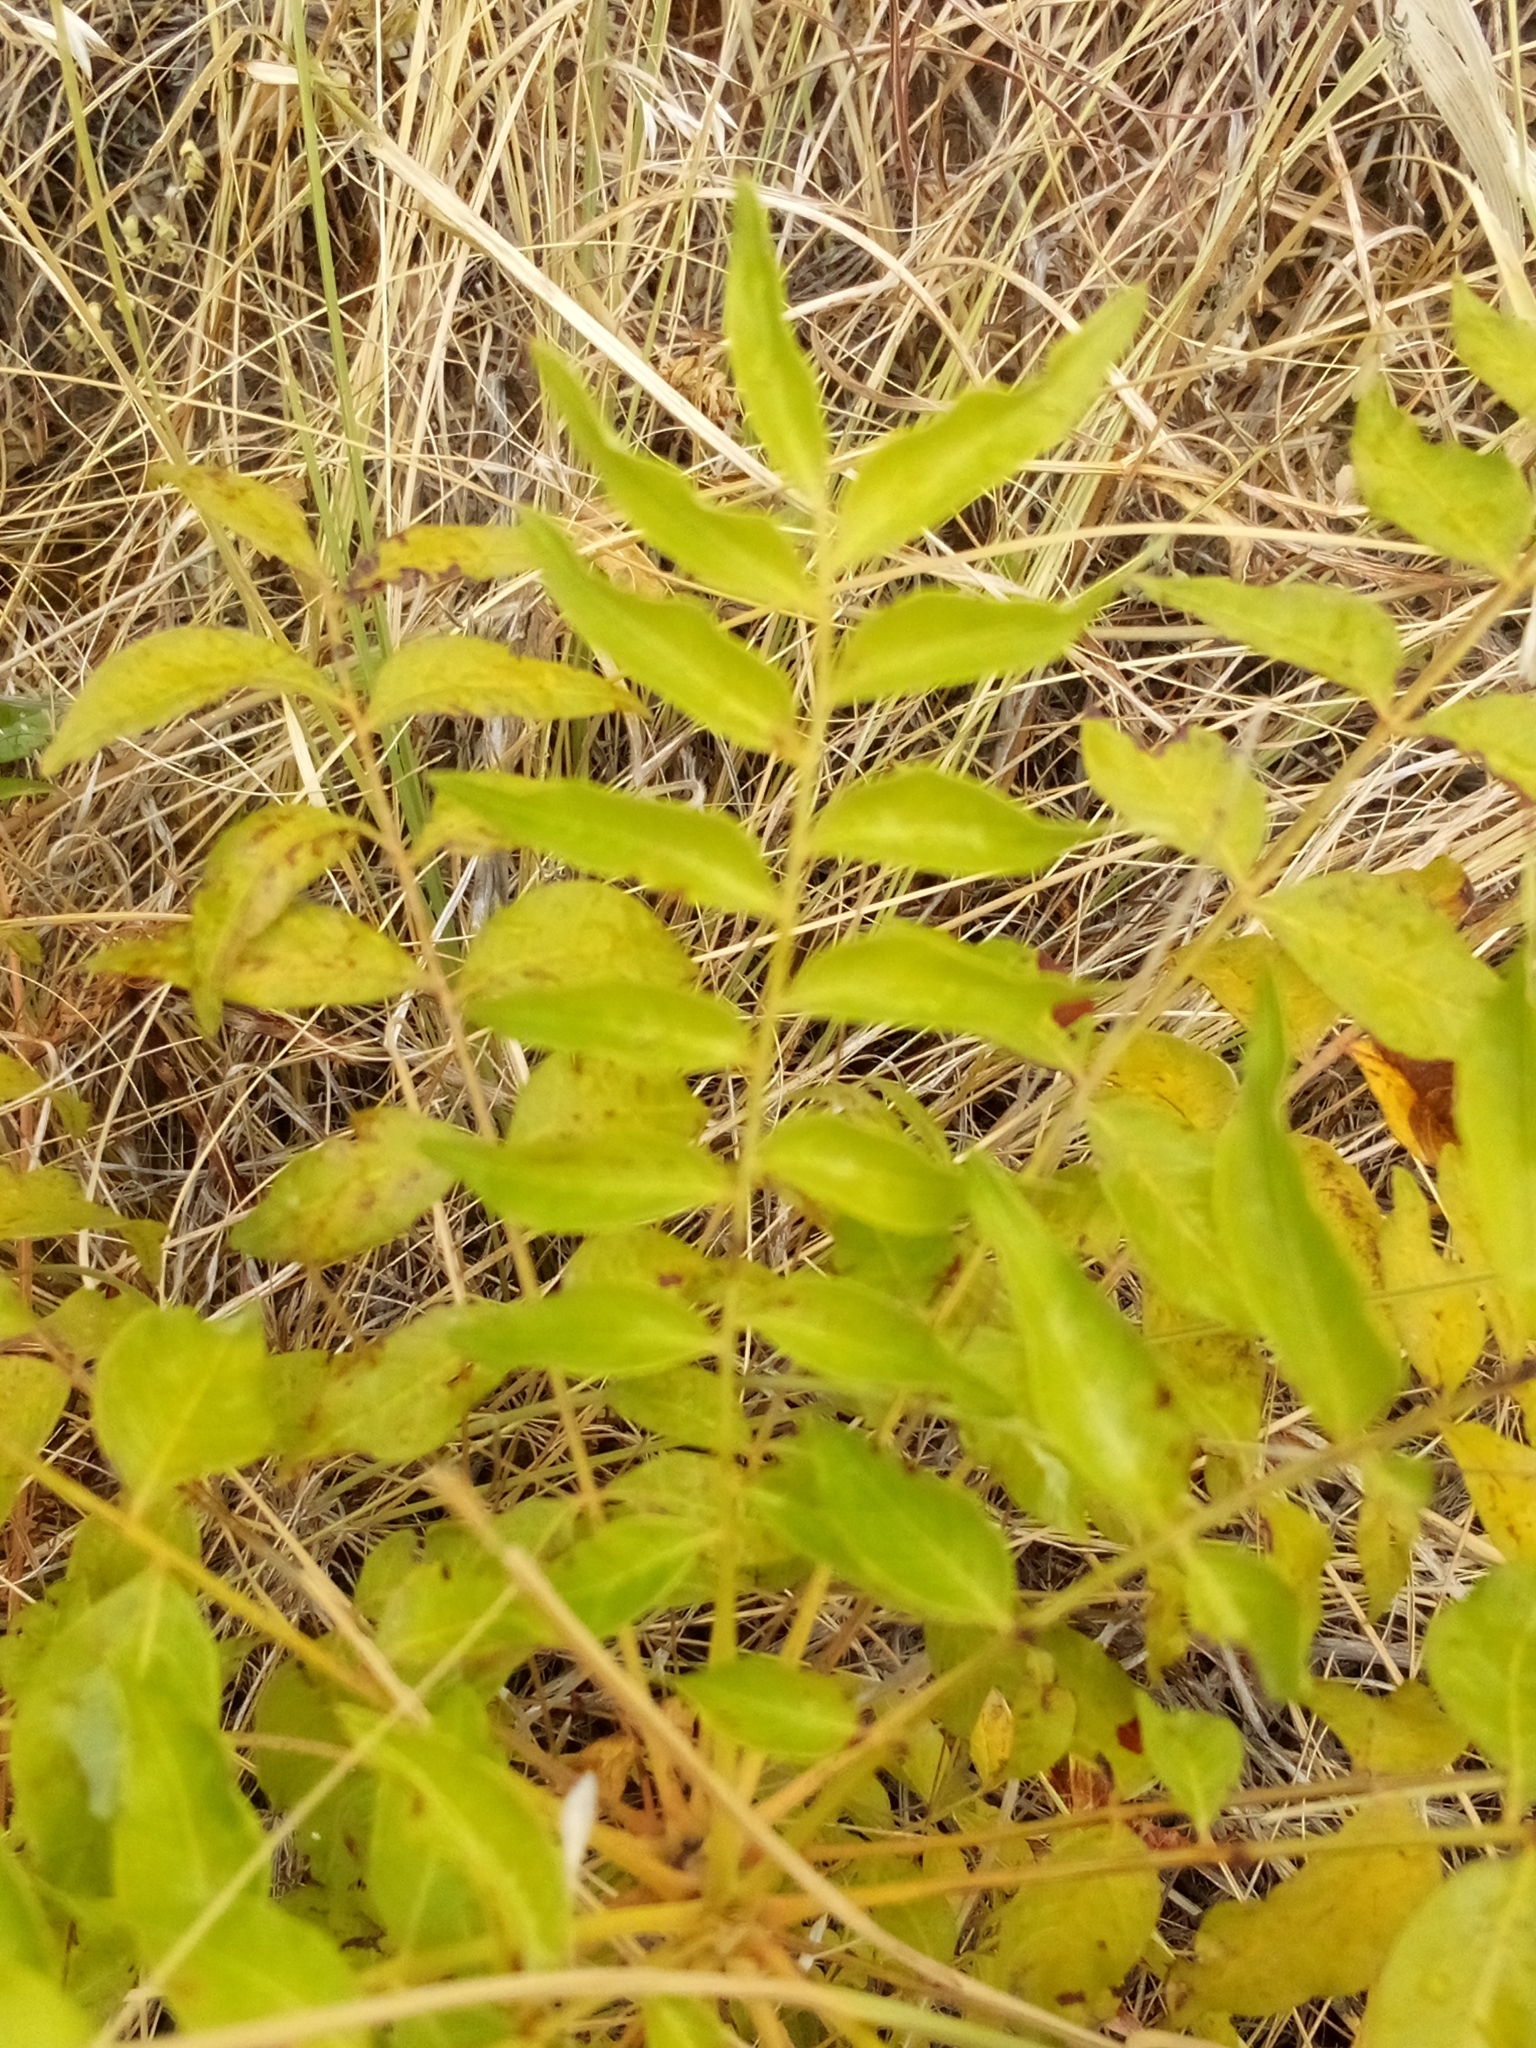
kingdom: Plantae
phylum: Tracheophyta
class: Magnoliopsida
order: Sapindales
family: Anacardiaceae
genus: Pistacia
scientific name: Pistacia chinensis
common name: Chinese pistache
